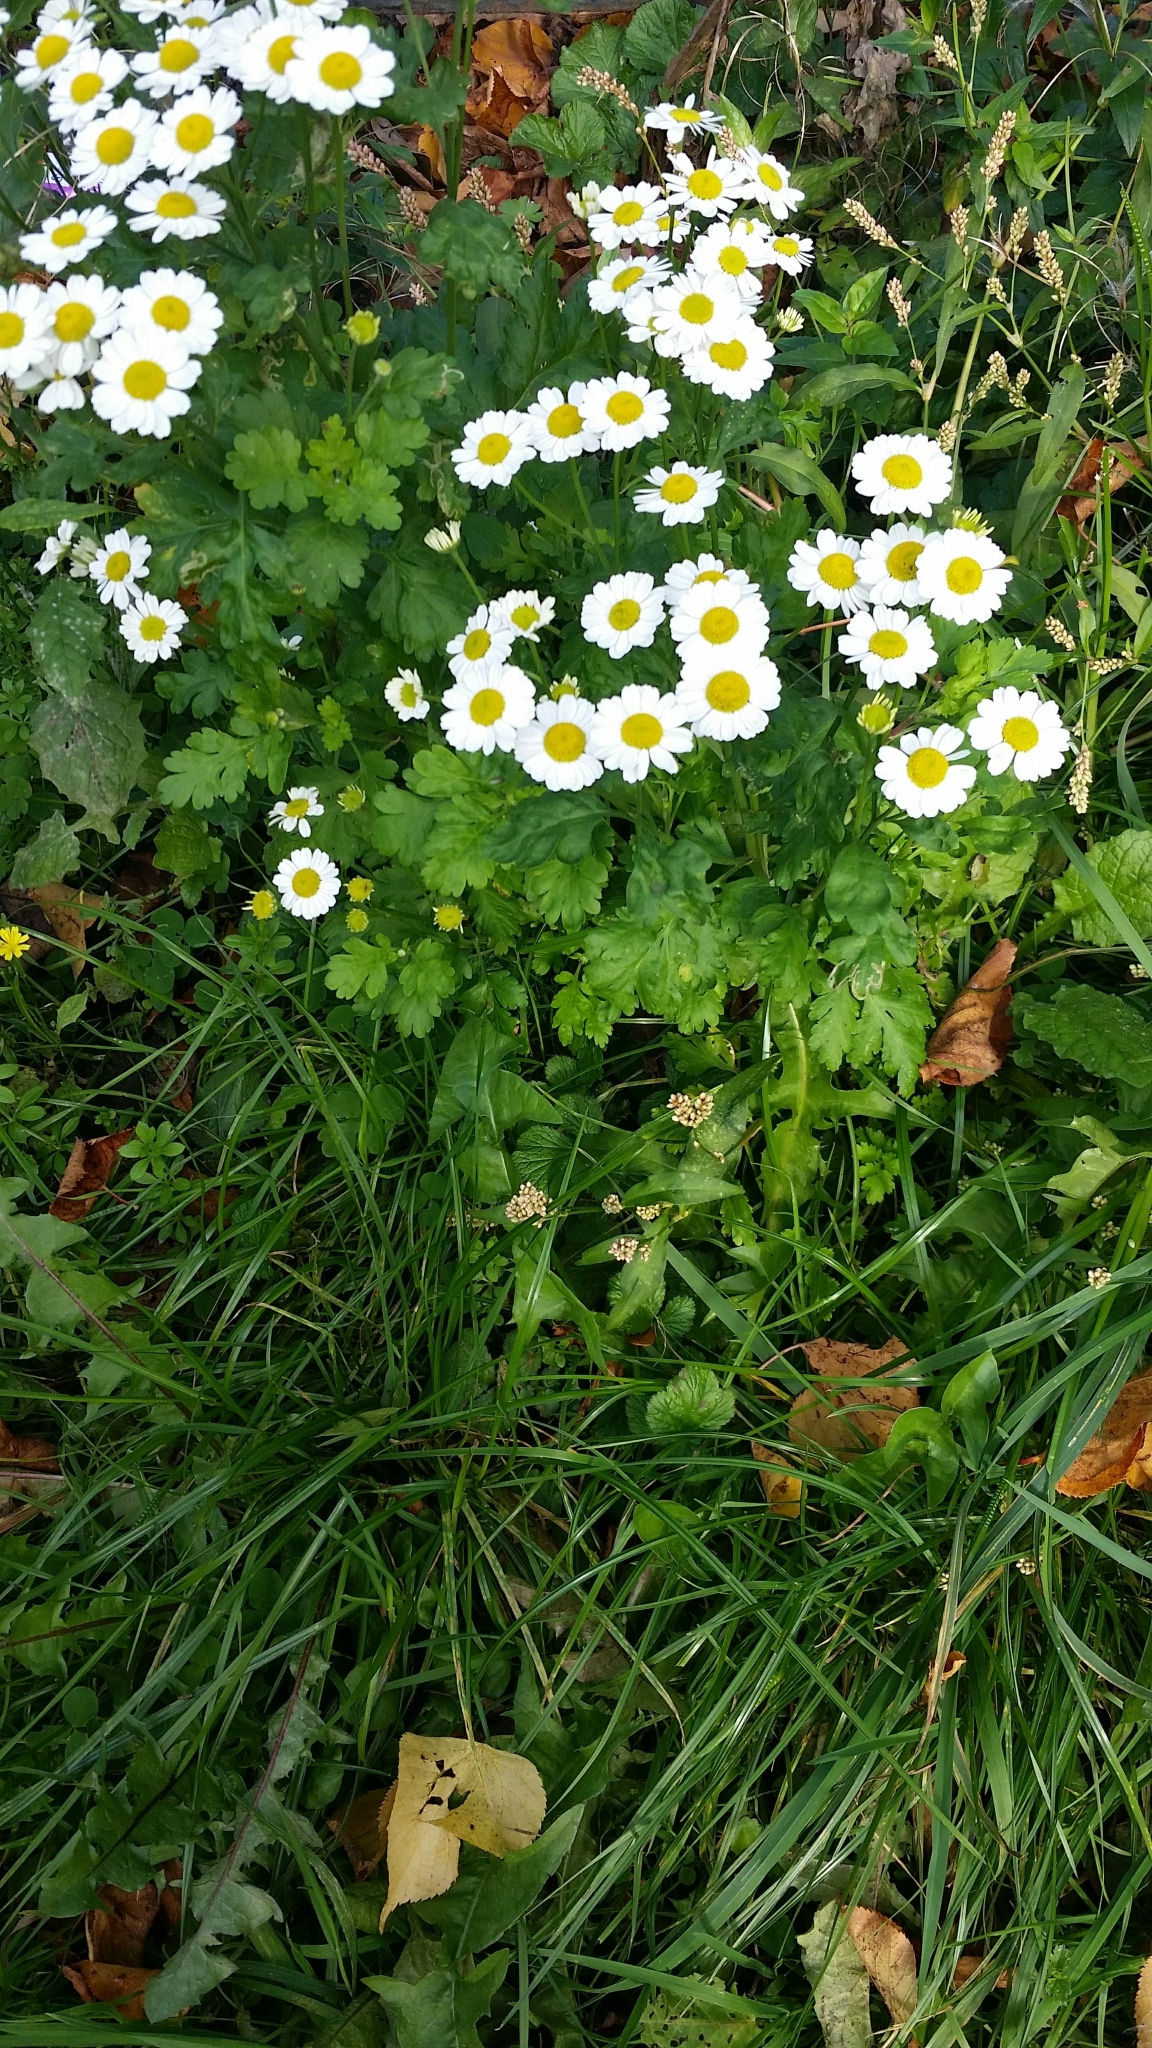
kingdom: Plantae
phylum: Tracheophyta
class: Magnoliopsida
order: Asterales
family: Asteraceae
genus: Tanacetum
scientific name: Tanacetum parthenium
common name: Feverfew
